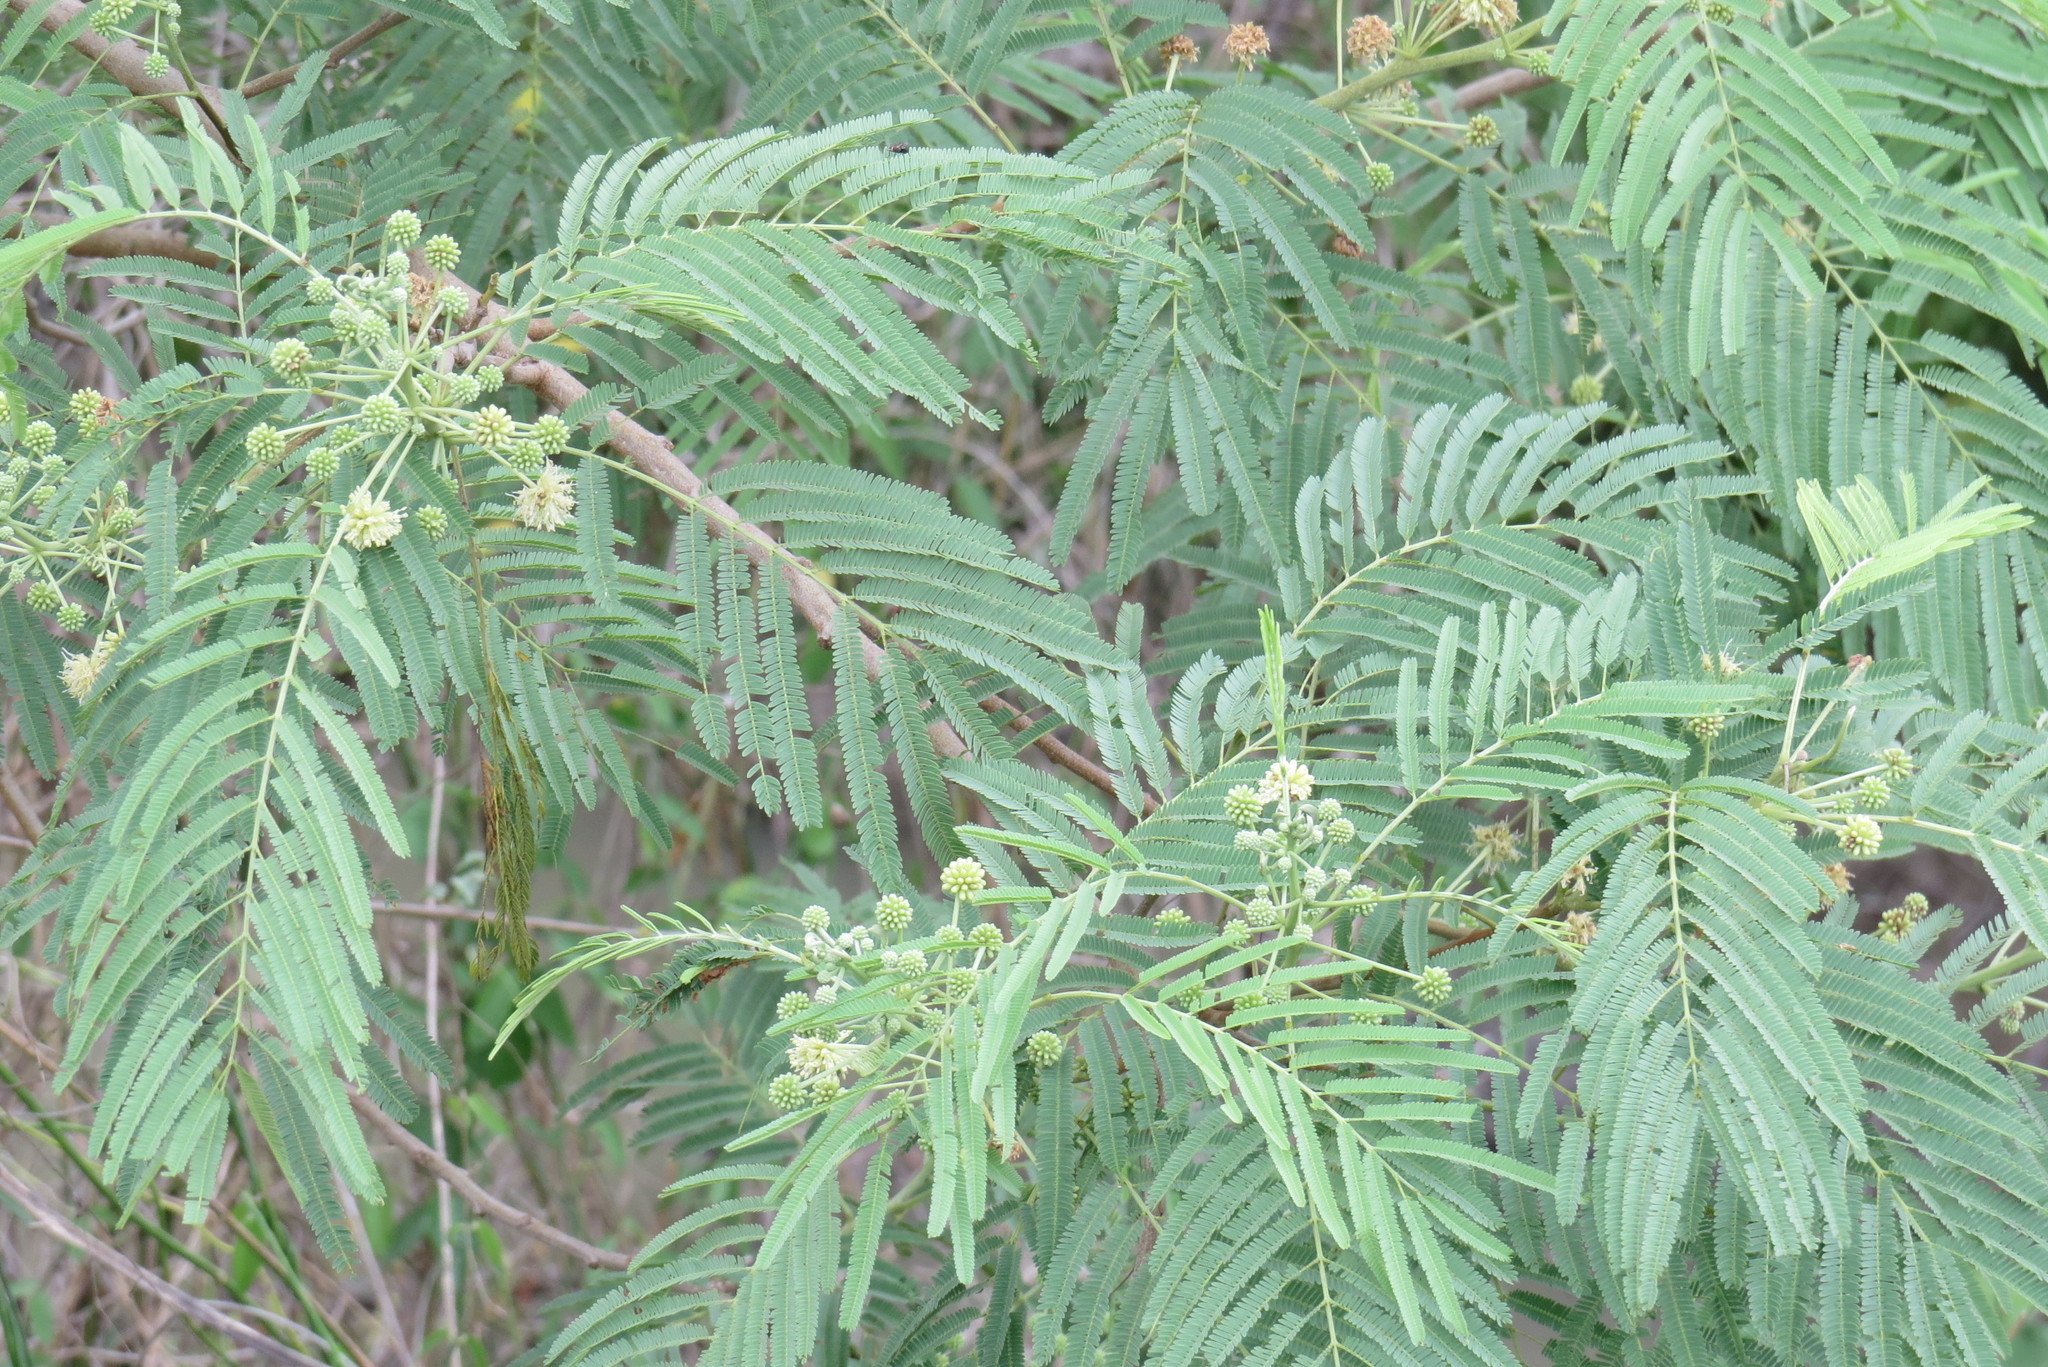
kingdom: Plantae
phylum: Tracheophyta
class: Magnoliopsida
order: Fabales
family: Fabaceae
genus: Leucaena
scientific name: Leucaena pulverulenta
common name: Great leadtree
